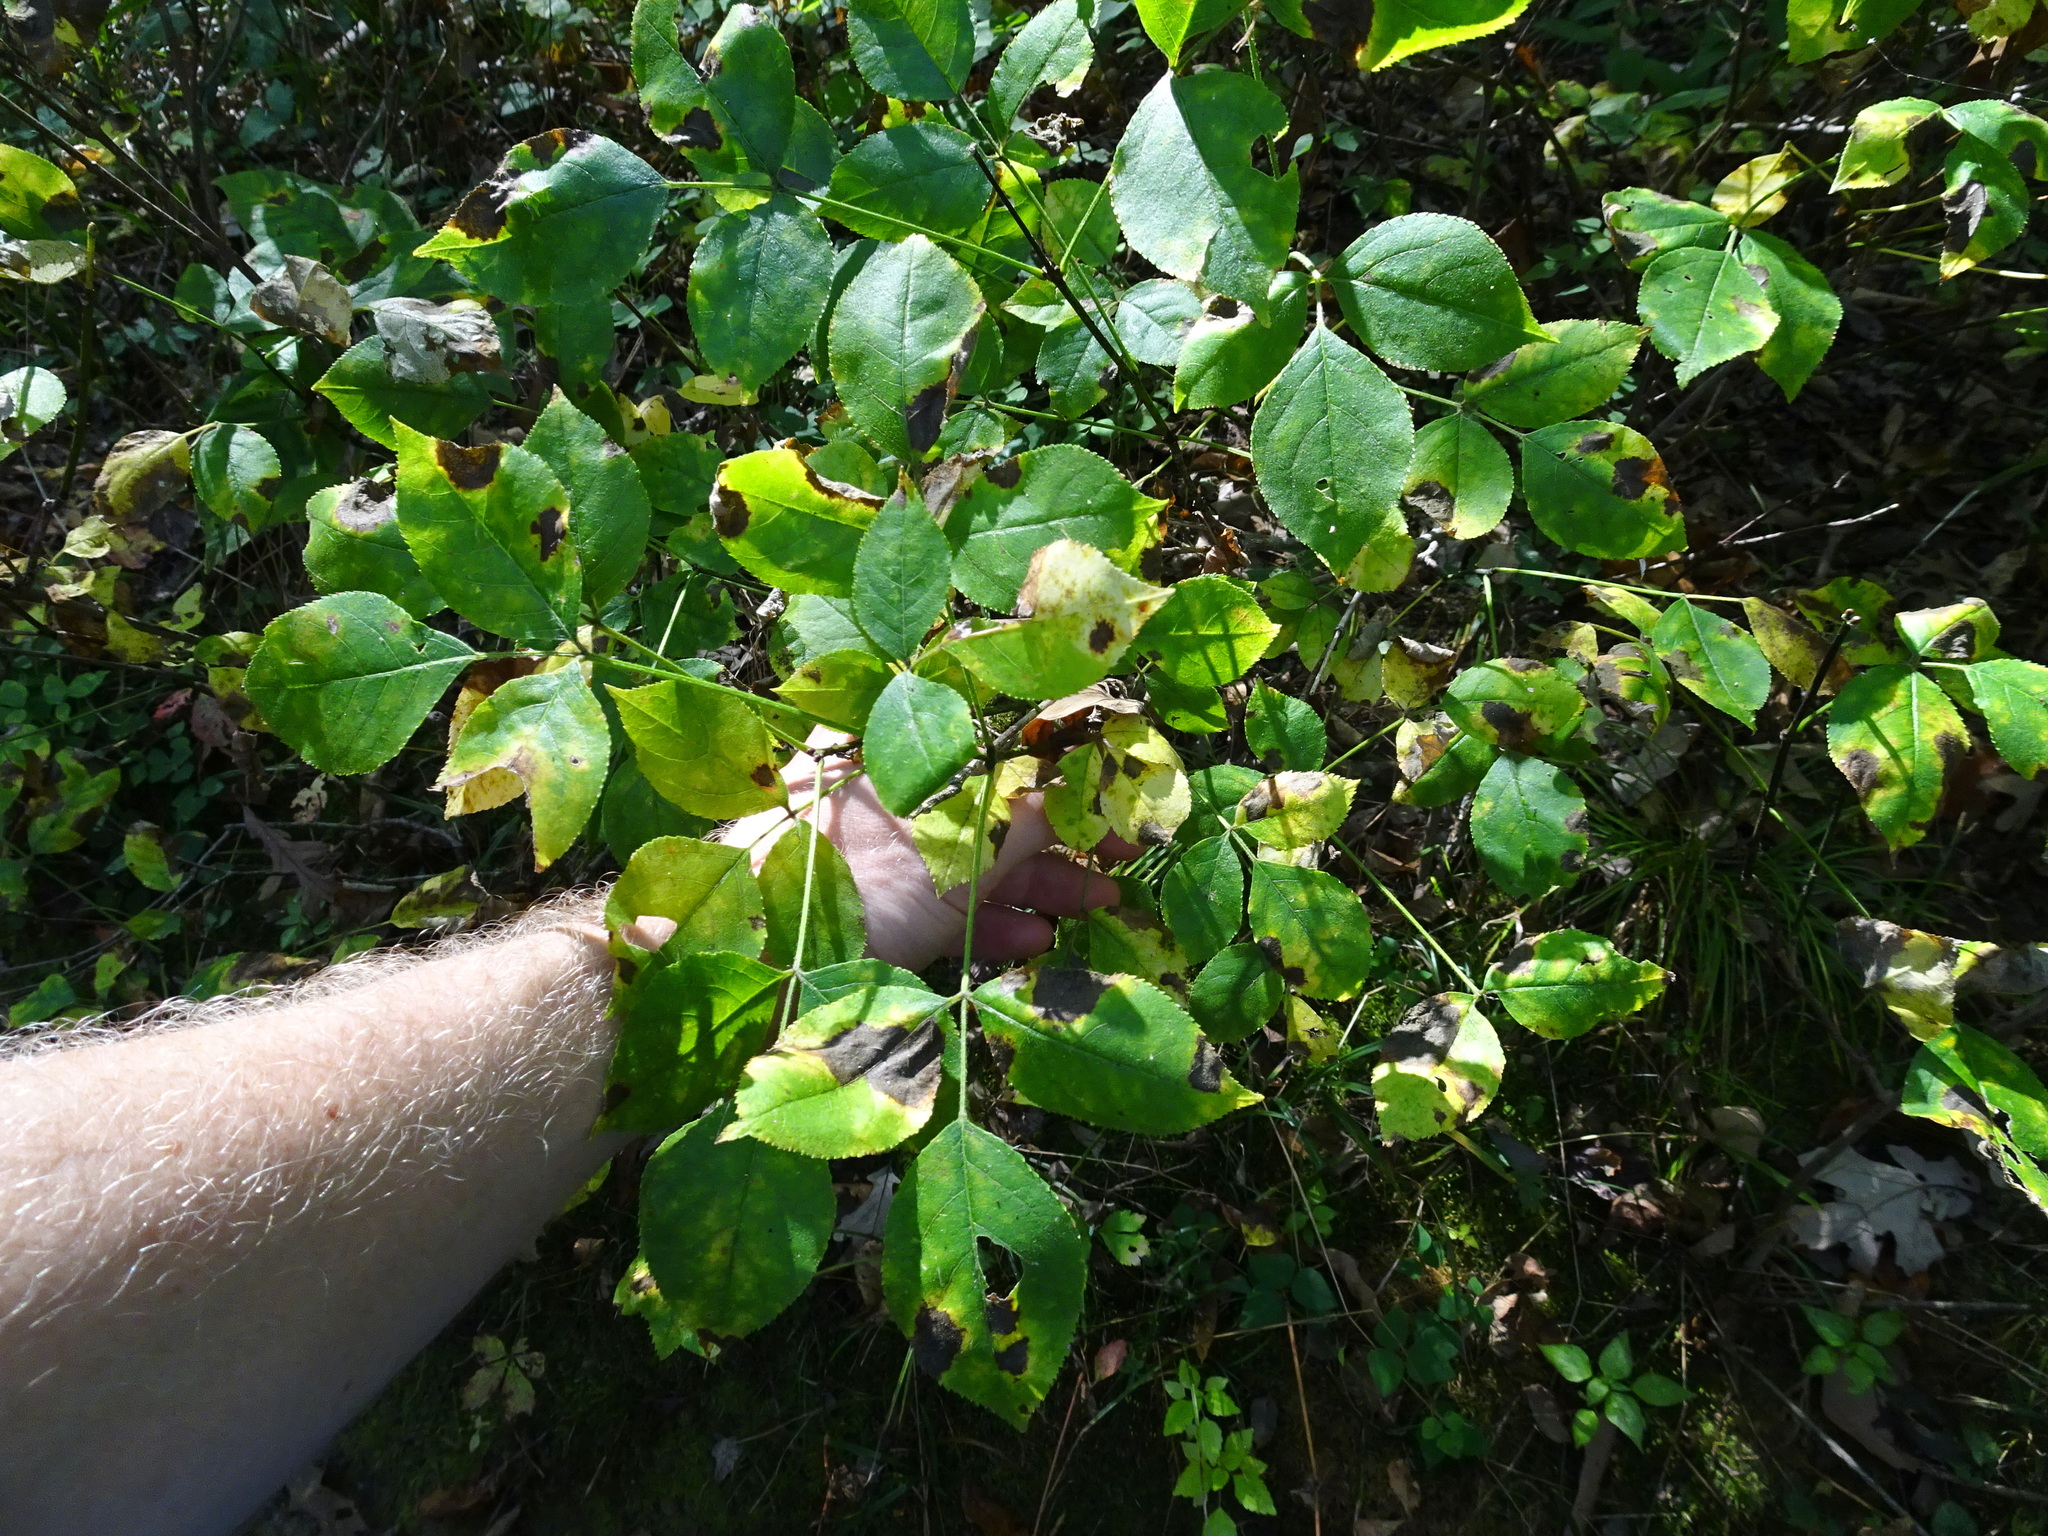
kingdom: Plantae
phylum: Tracheophyta
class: Magnoliopsida
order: Crossosomatales
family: Staphyleaceae
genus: Staphylea
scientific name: Staphylea trifolia
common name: American bladdernut
